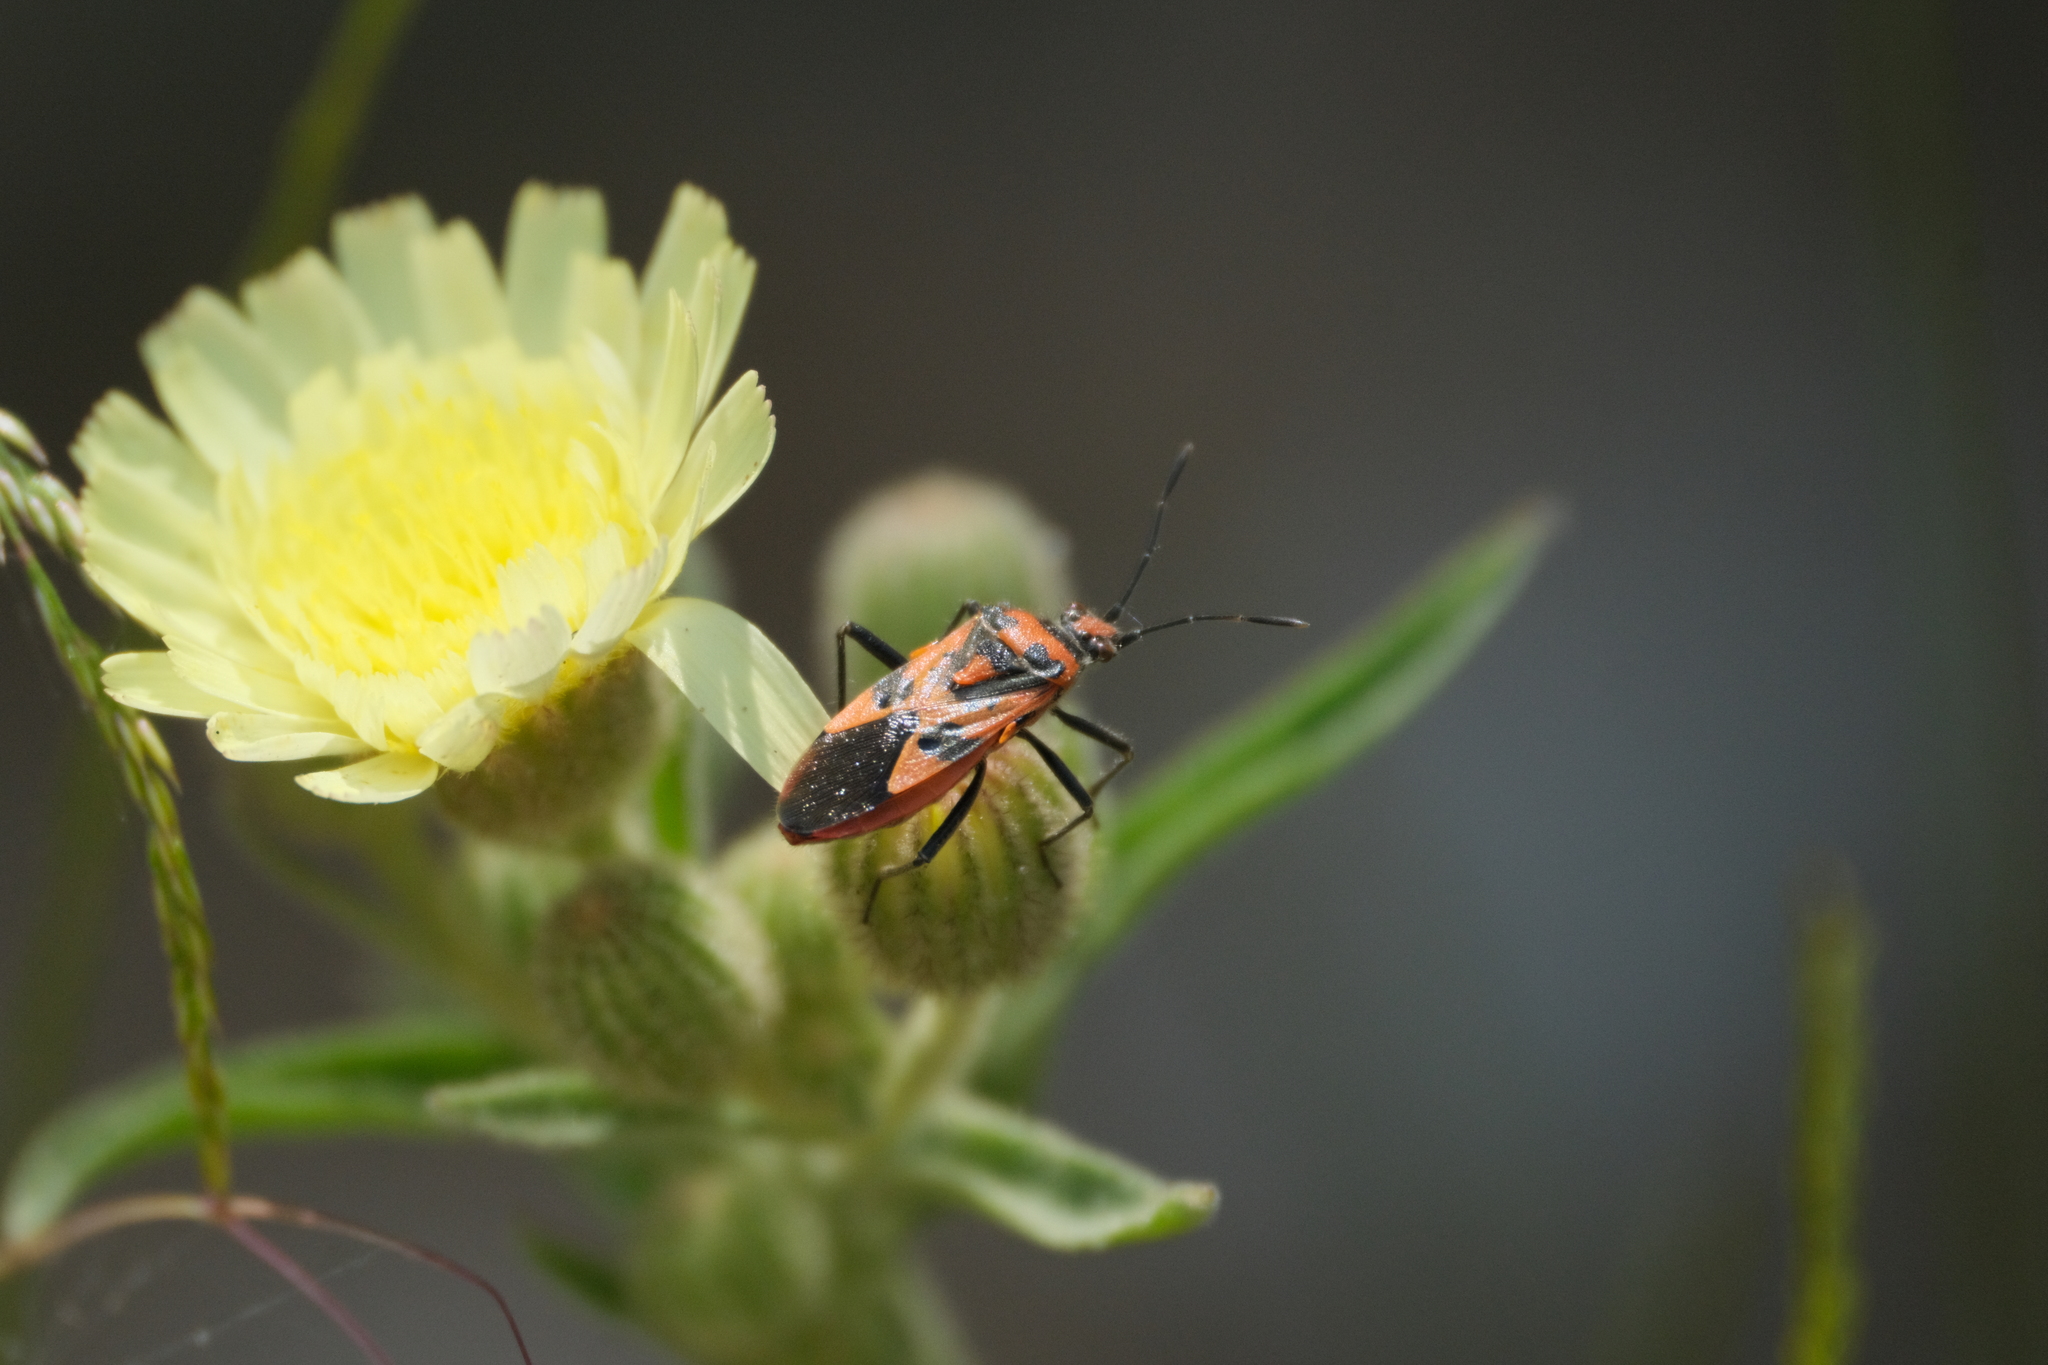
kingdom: Animalia
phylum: Arthropoda
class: Insecta
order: Hemiptera
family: Rhopalidae
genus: Corizus
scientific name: Corizus hyoscyami
